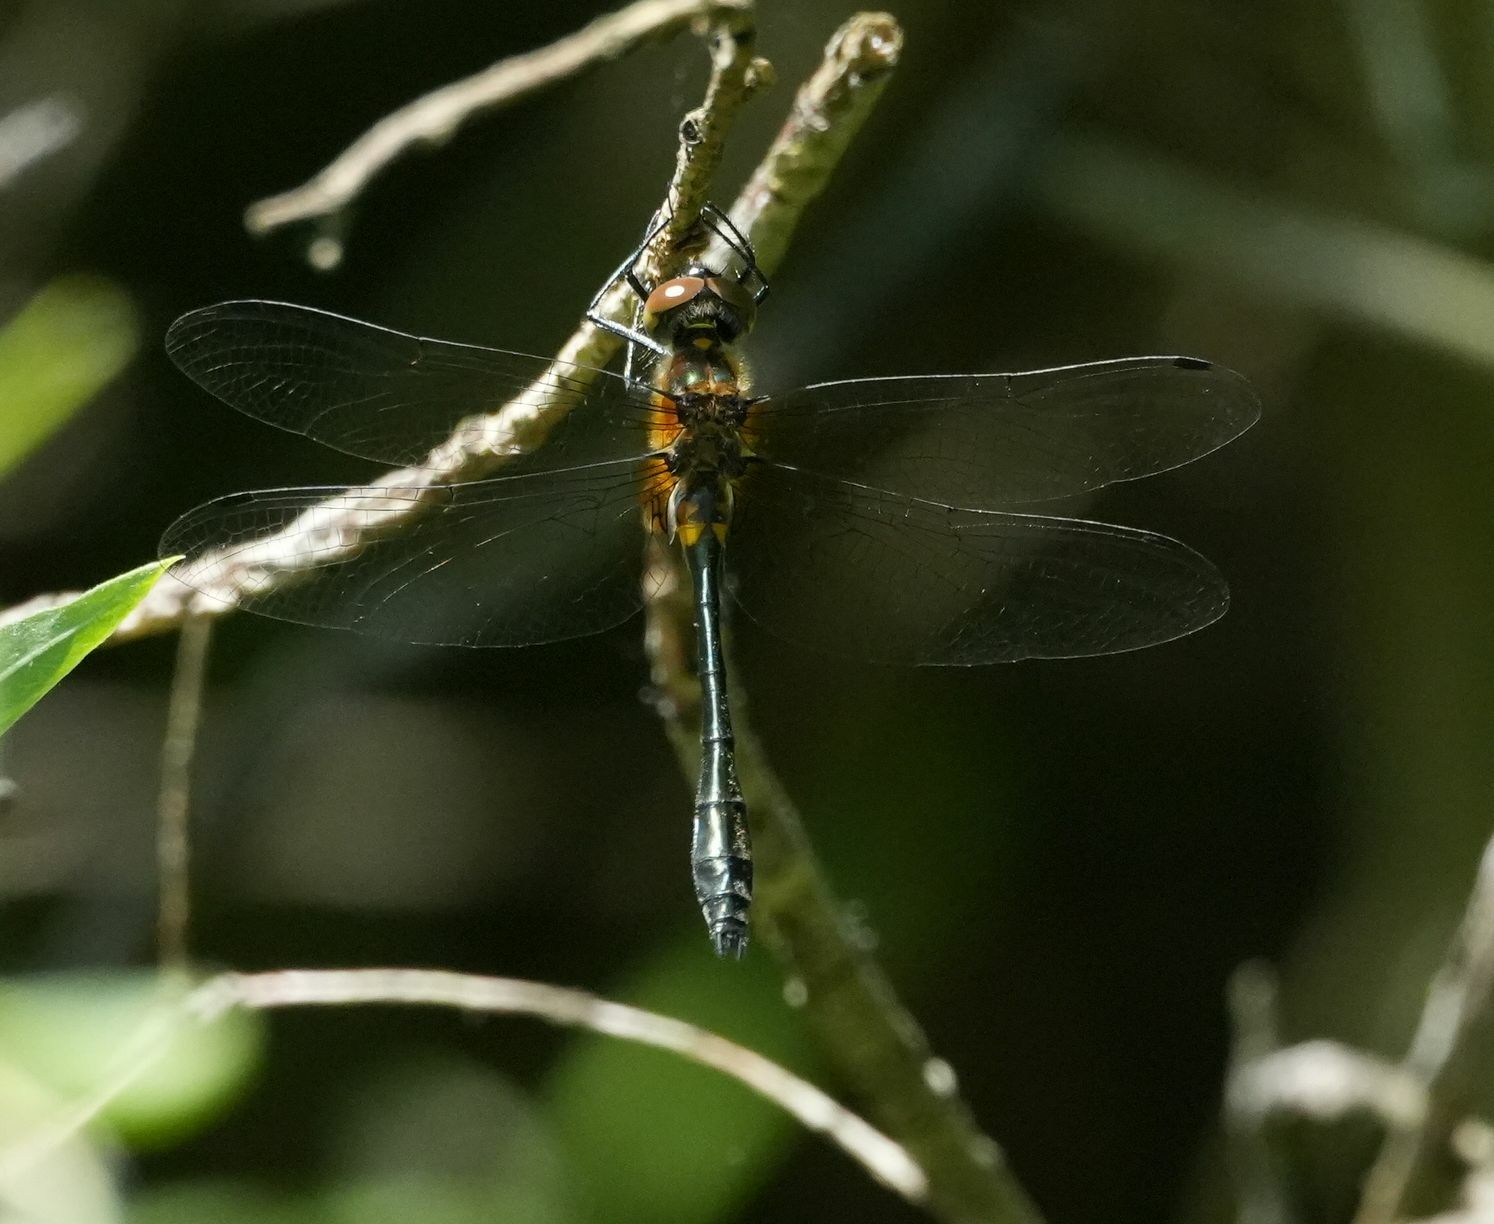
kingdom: Animalia
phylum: Arthropoda
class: Insecta
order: Odonata
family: Corduliidae
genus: Dorocordulia
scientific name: Dorocordulia libera
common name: Racket-tailed emerald
